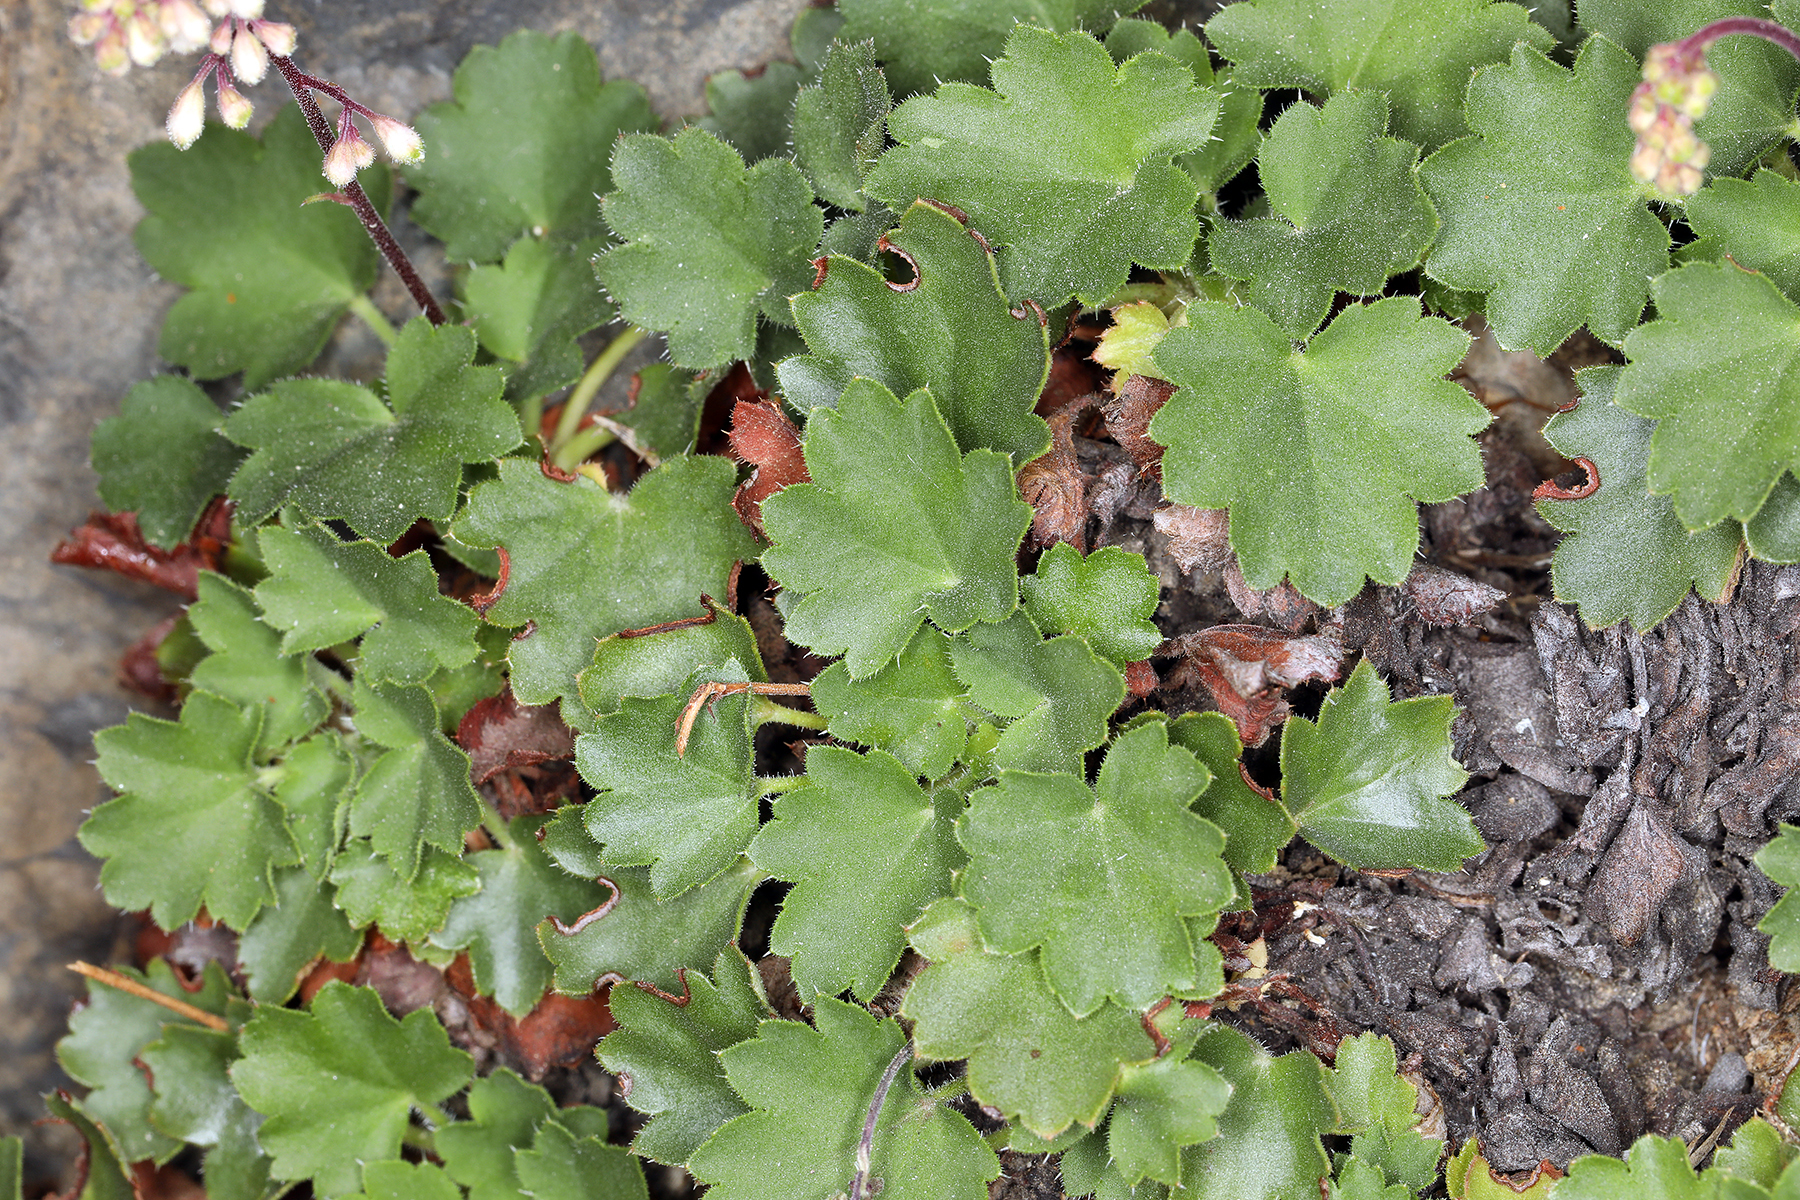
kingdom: Plantae
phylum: Tracheophyta
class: Magnoliopsida
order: Saxifragales
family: Saxifragaceae
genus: Heuchera
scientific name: Heuchera rubescens
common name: Jack-o'the-rocks
